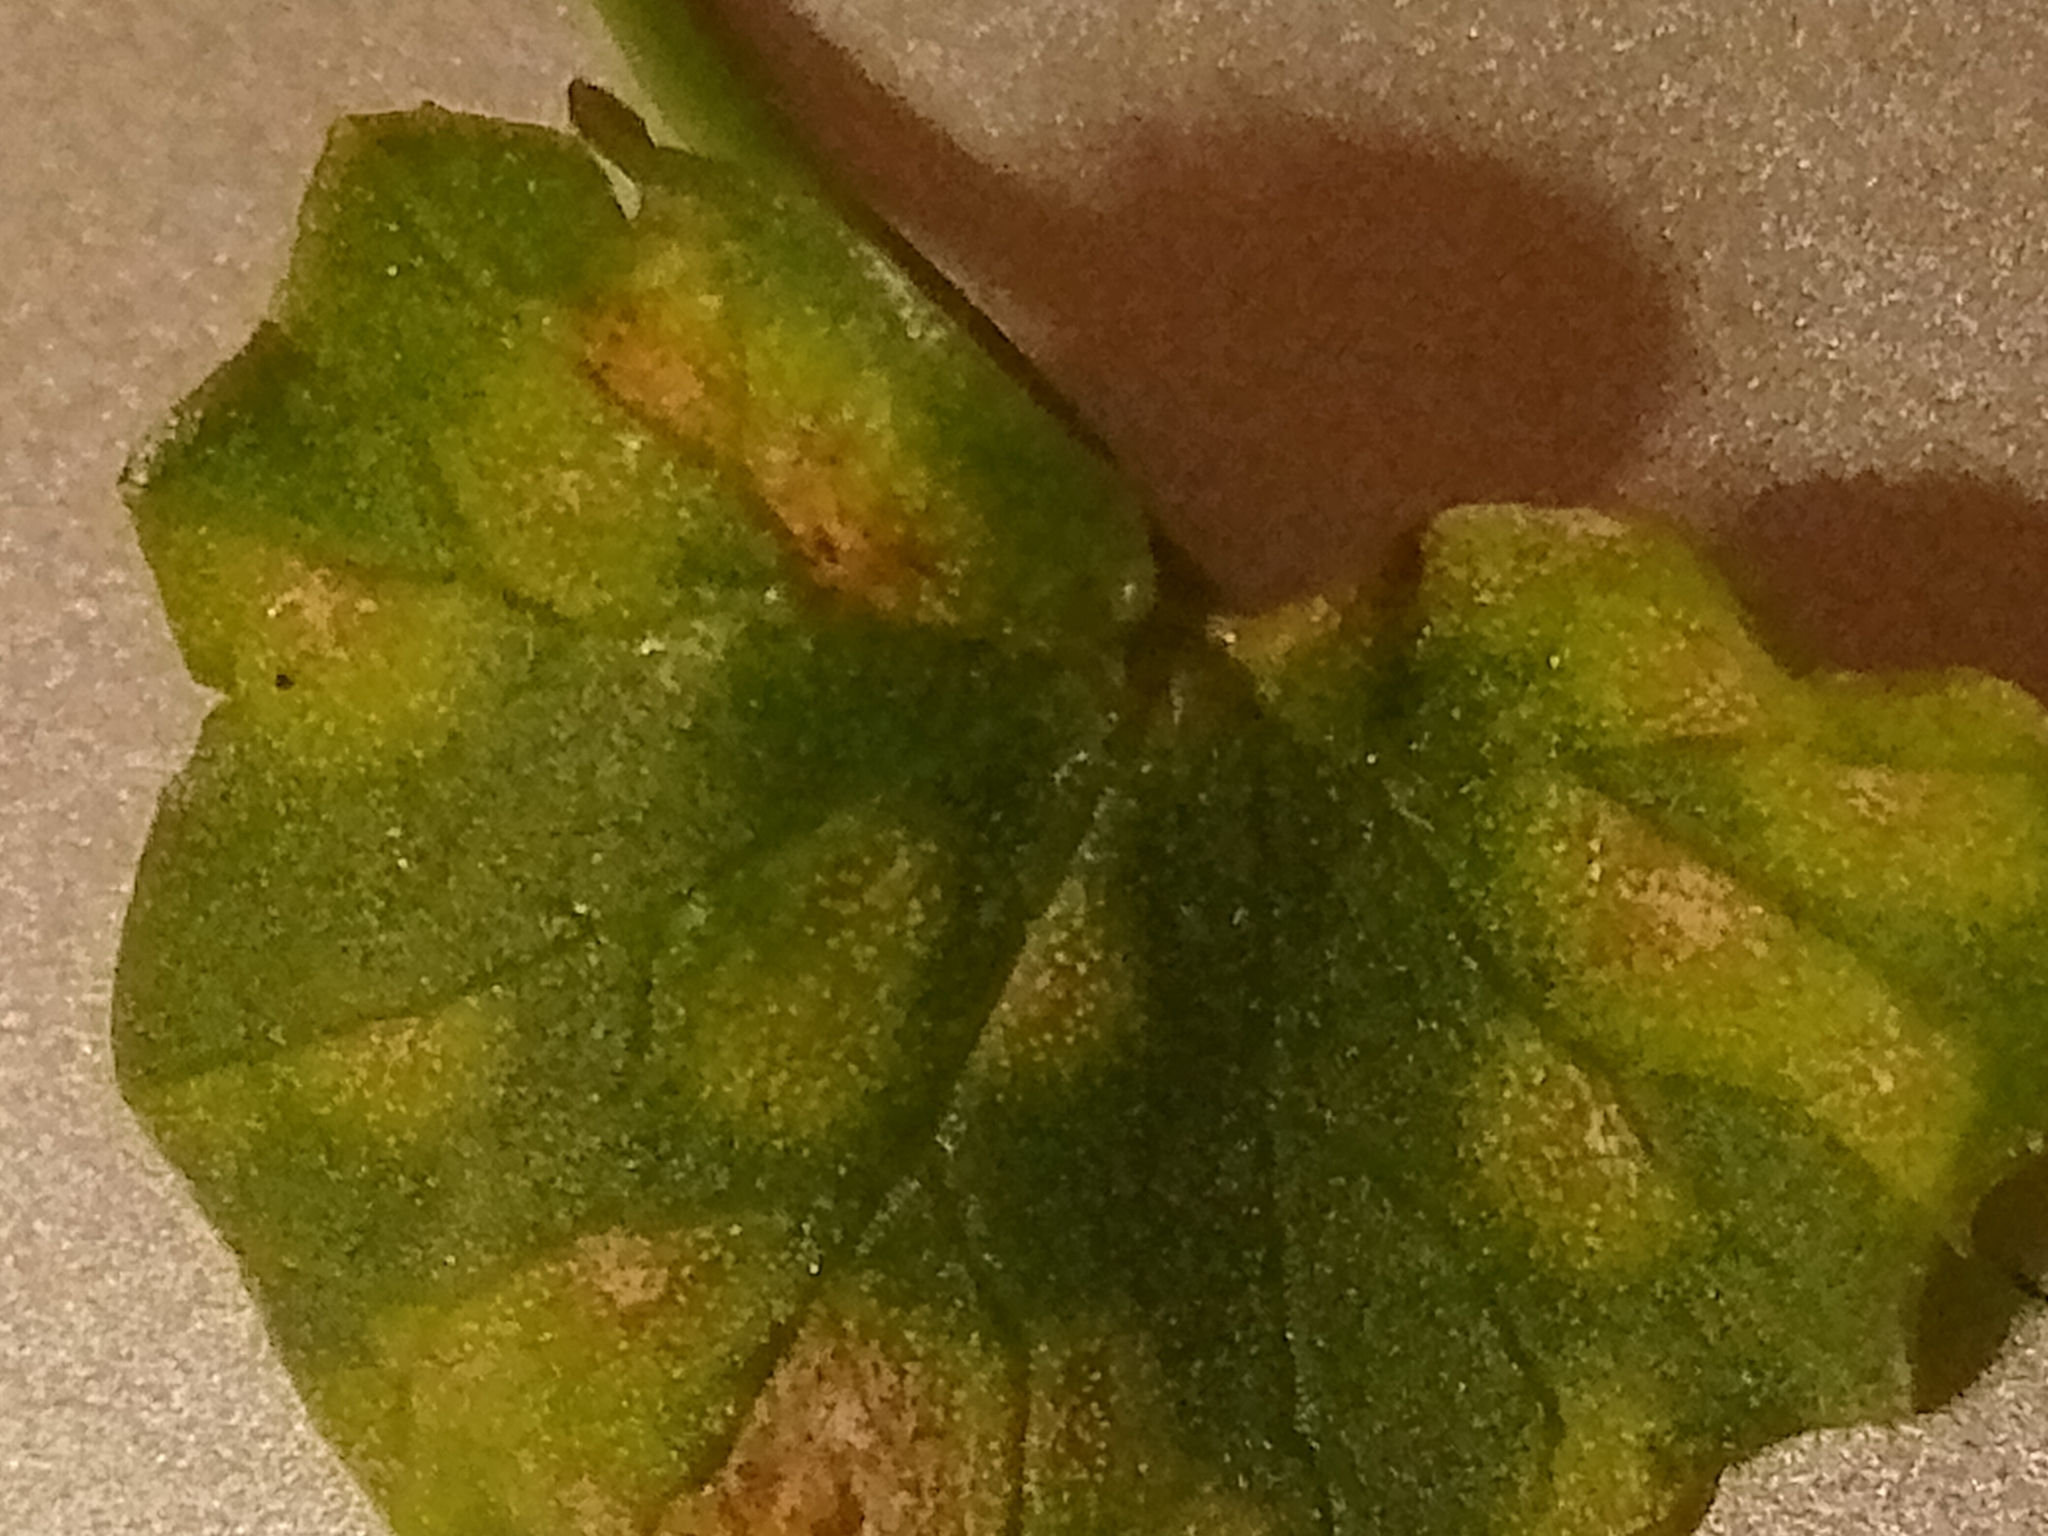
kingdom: Fungi
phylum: Basidiomycota
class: Exobasidiomycetes
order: Entylomatales
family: Entylomataceae
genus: Entyloma
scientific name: Entyloma ficariae
